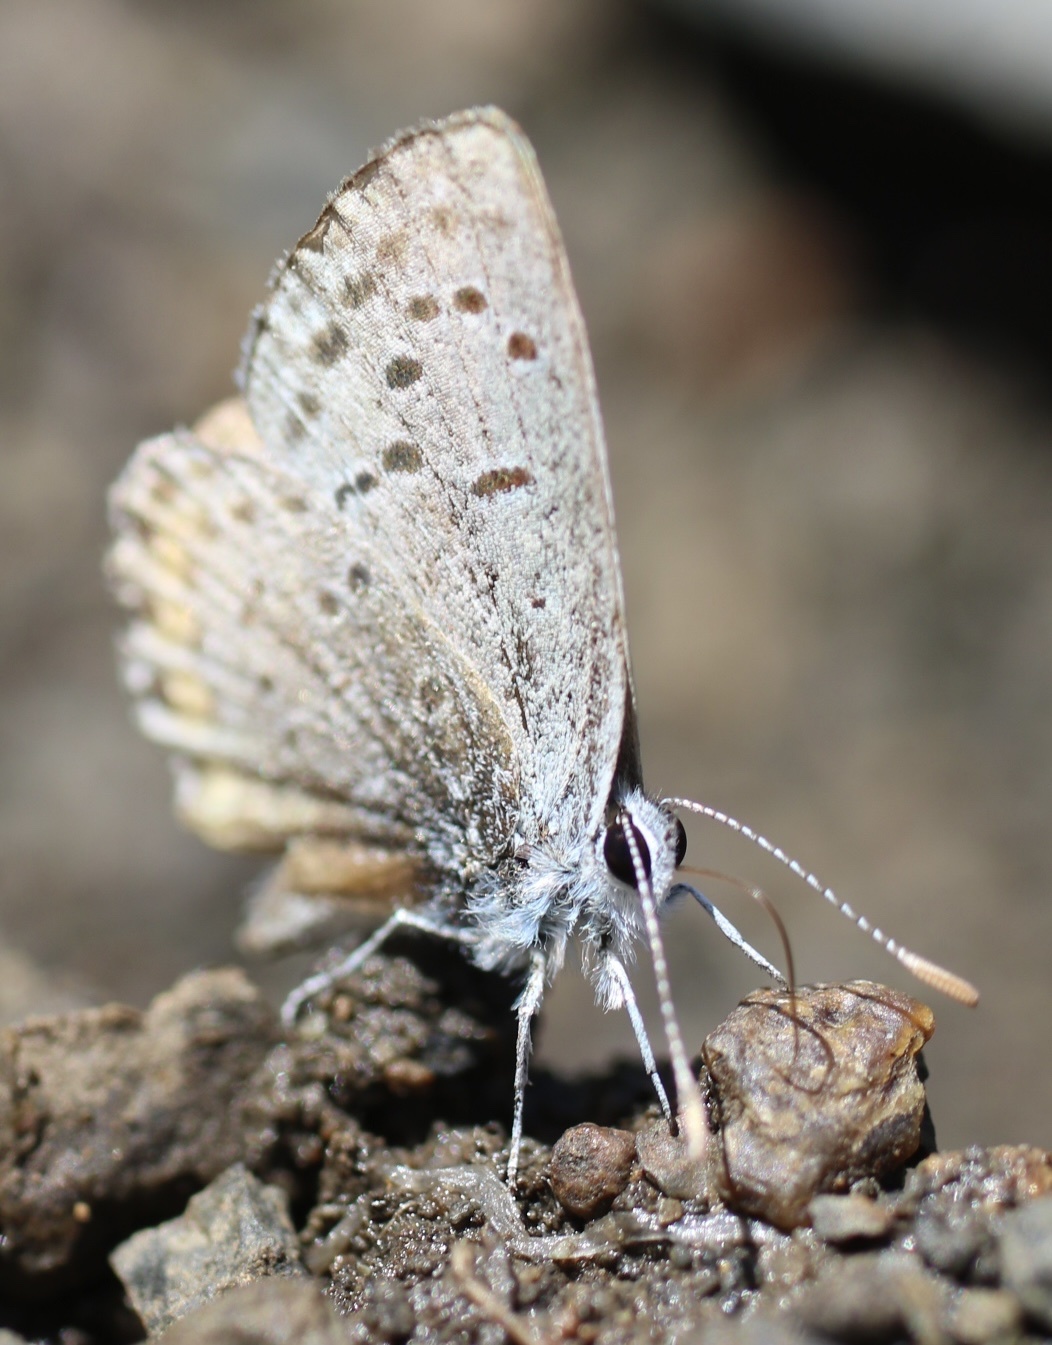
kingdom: Animalia
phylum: Arthropoda
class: Insecta
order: Lepidoptera
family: Lycaenidae
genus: Icaricia
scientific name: Icaricia acmon
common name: Acmon blue
